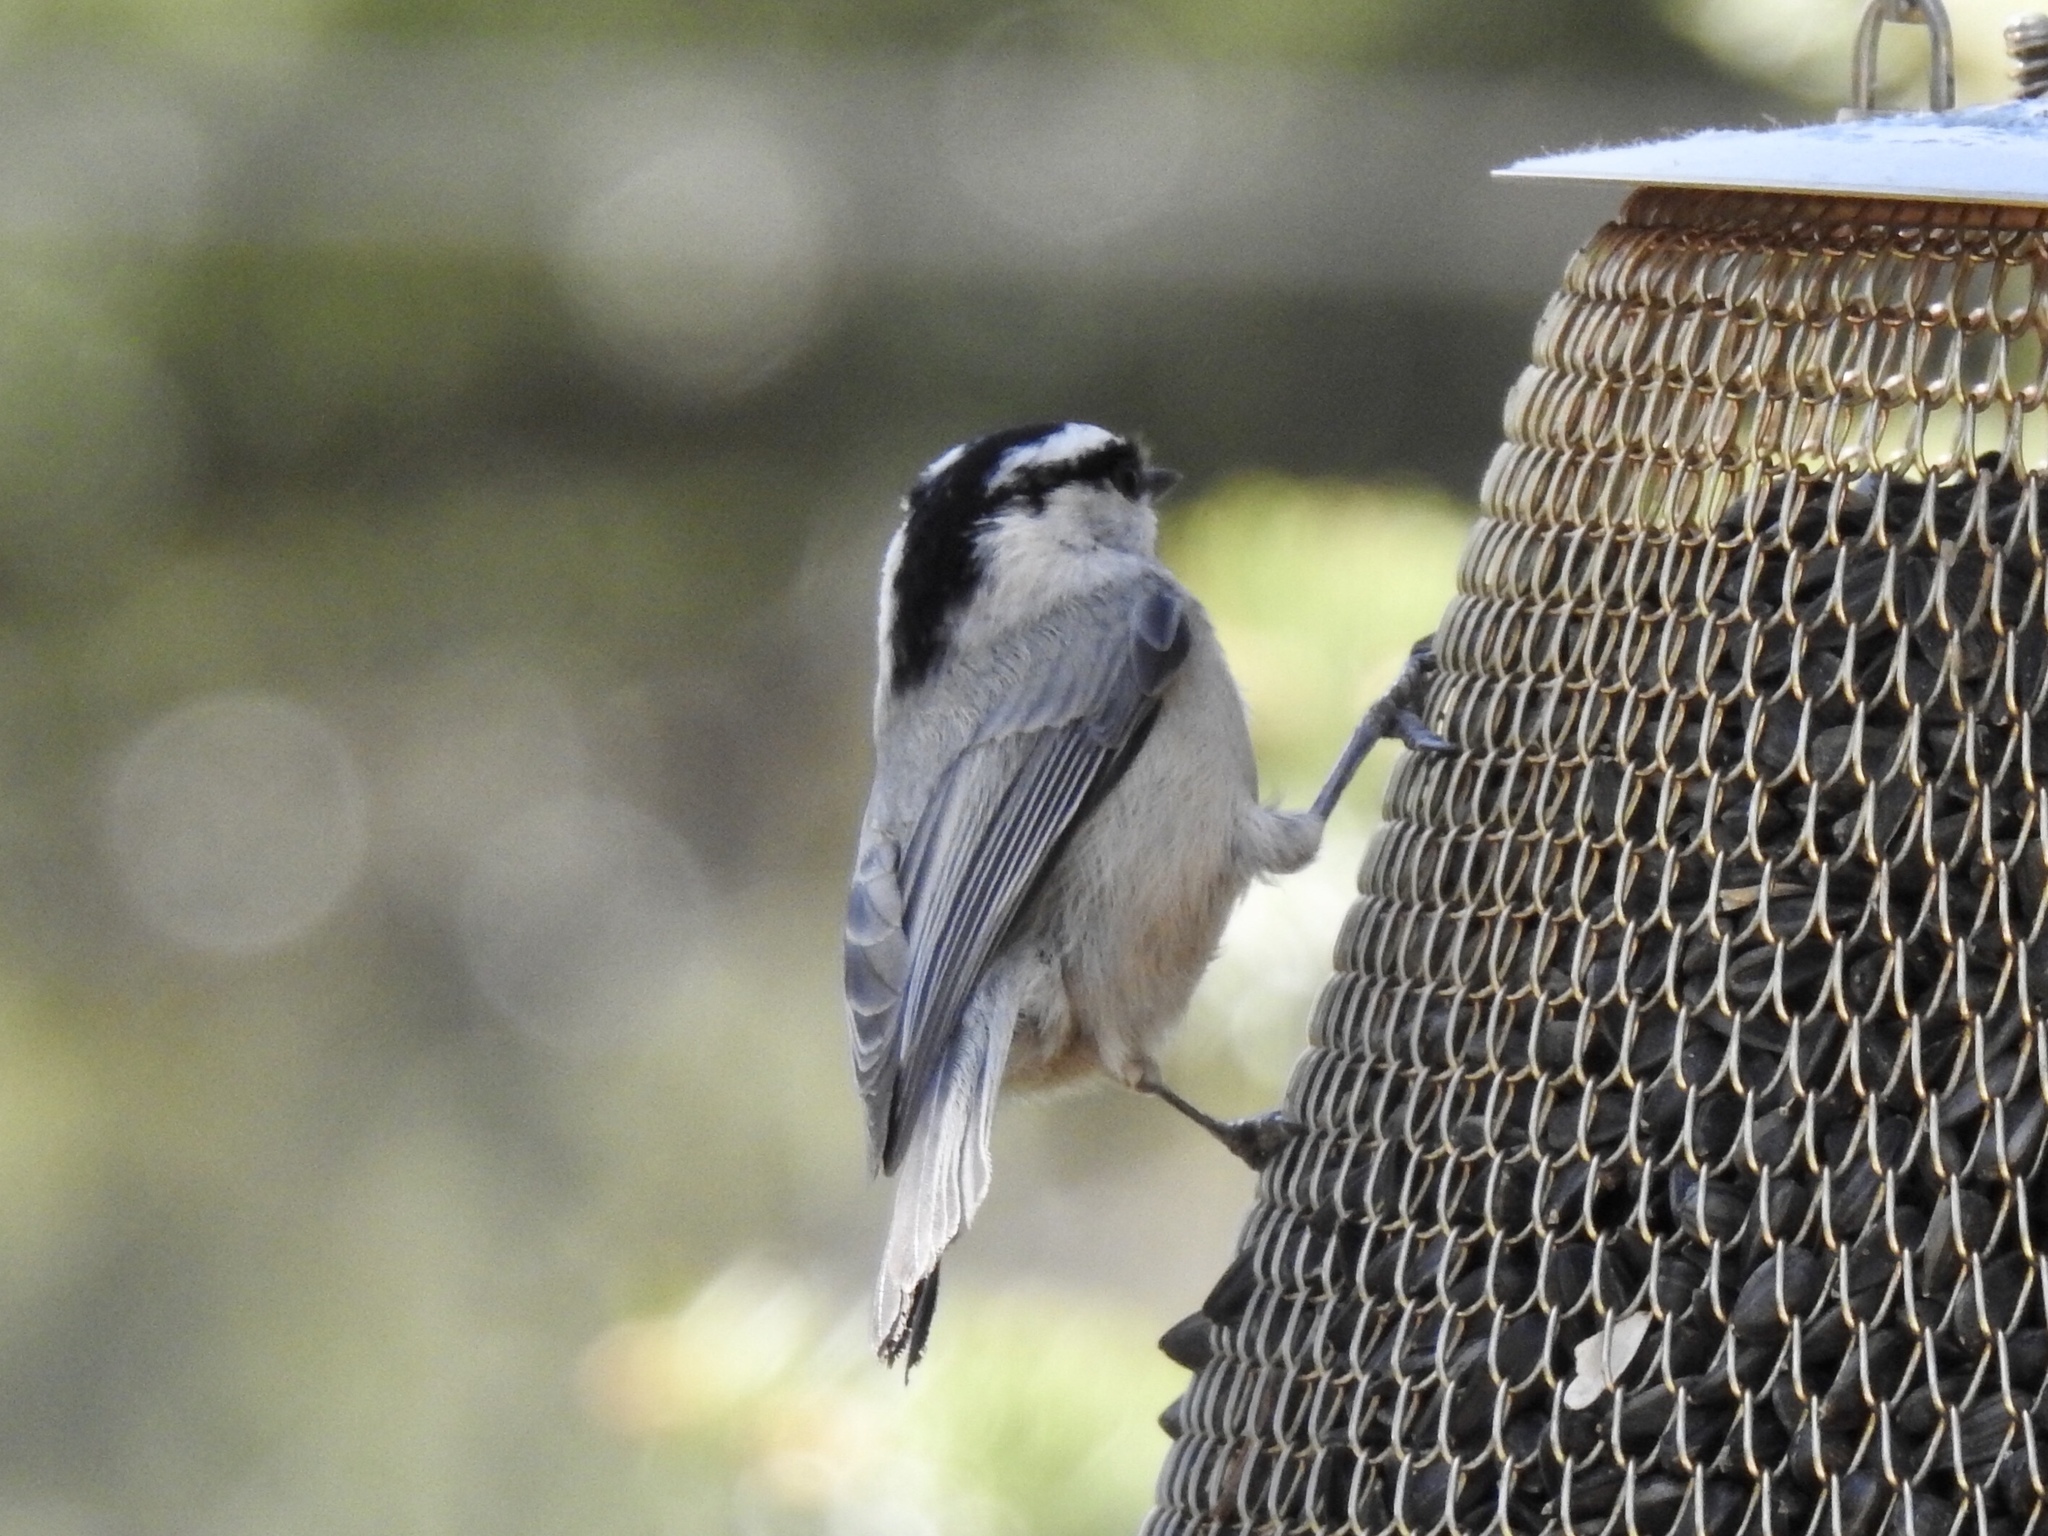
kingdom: Animalia
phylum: Chordata
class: Aves
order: Passeriformes
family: Paridae
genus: Poecile
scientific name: Poecile gambeli
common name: Mountain chickadee
